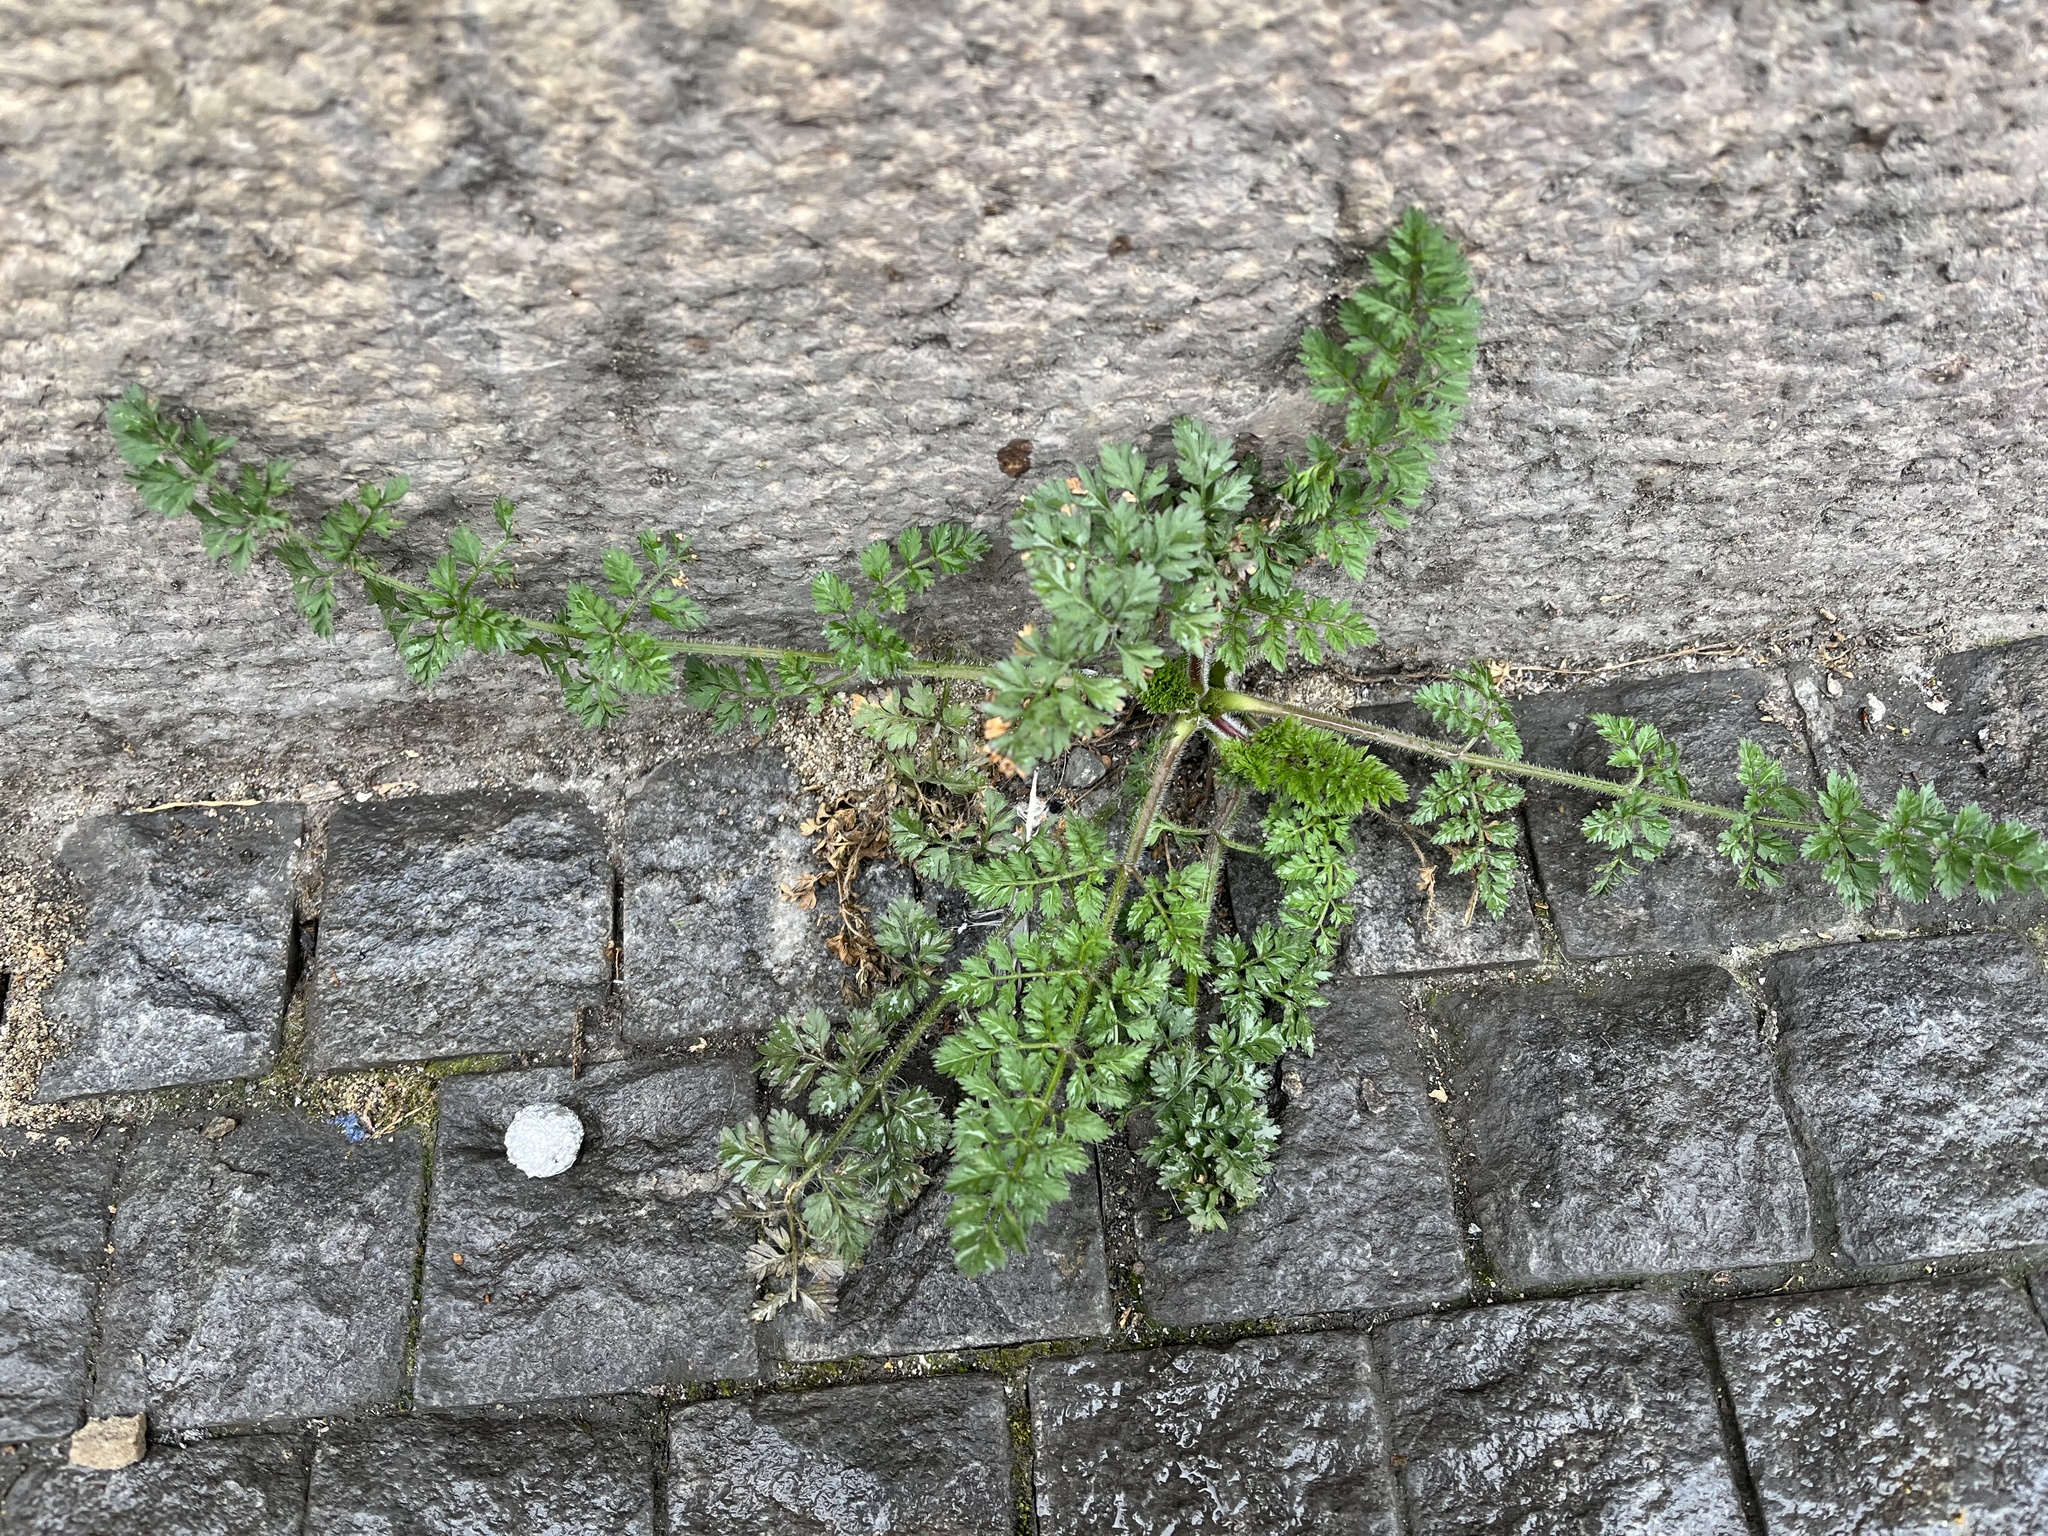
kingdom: Plantae
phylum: Tracheophyta
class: Magnoliopsida
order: Apiales
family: Apiaceae
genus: Daucus
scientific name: Daucus carota
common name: Wild carrot
